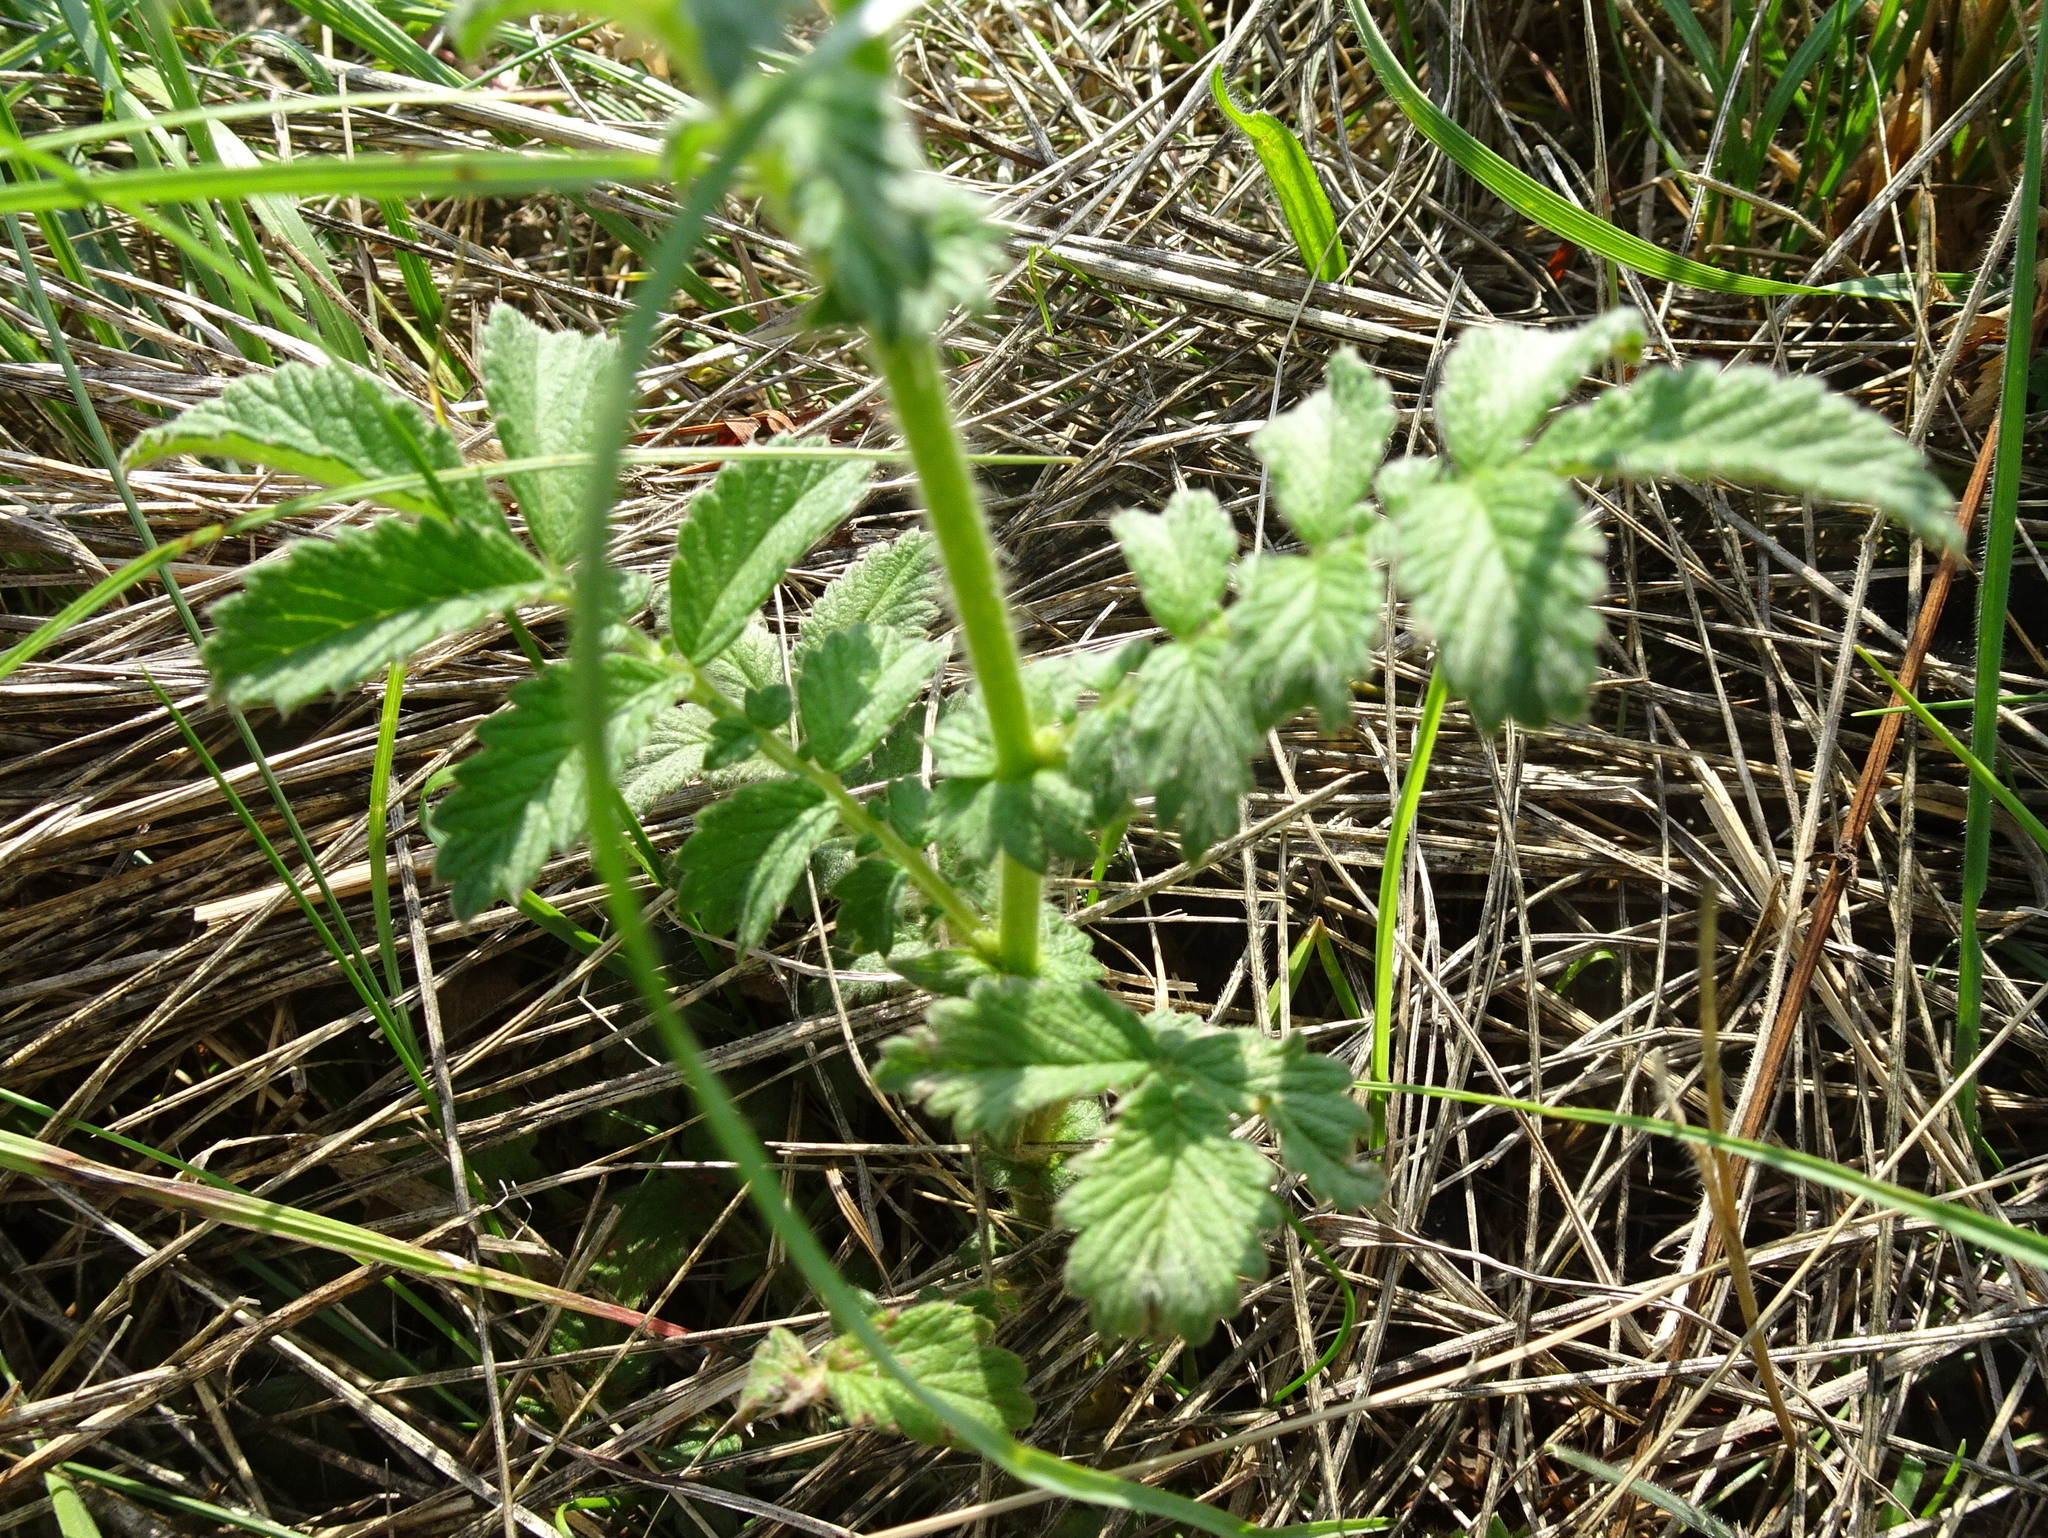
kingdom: Plantae
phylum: Tracheophyta
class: Magnoliopsida
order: Rosales
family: Rosaceae
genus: Agrimonia
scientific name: Agrimonia eupatoria
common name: Agrimony
